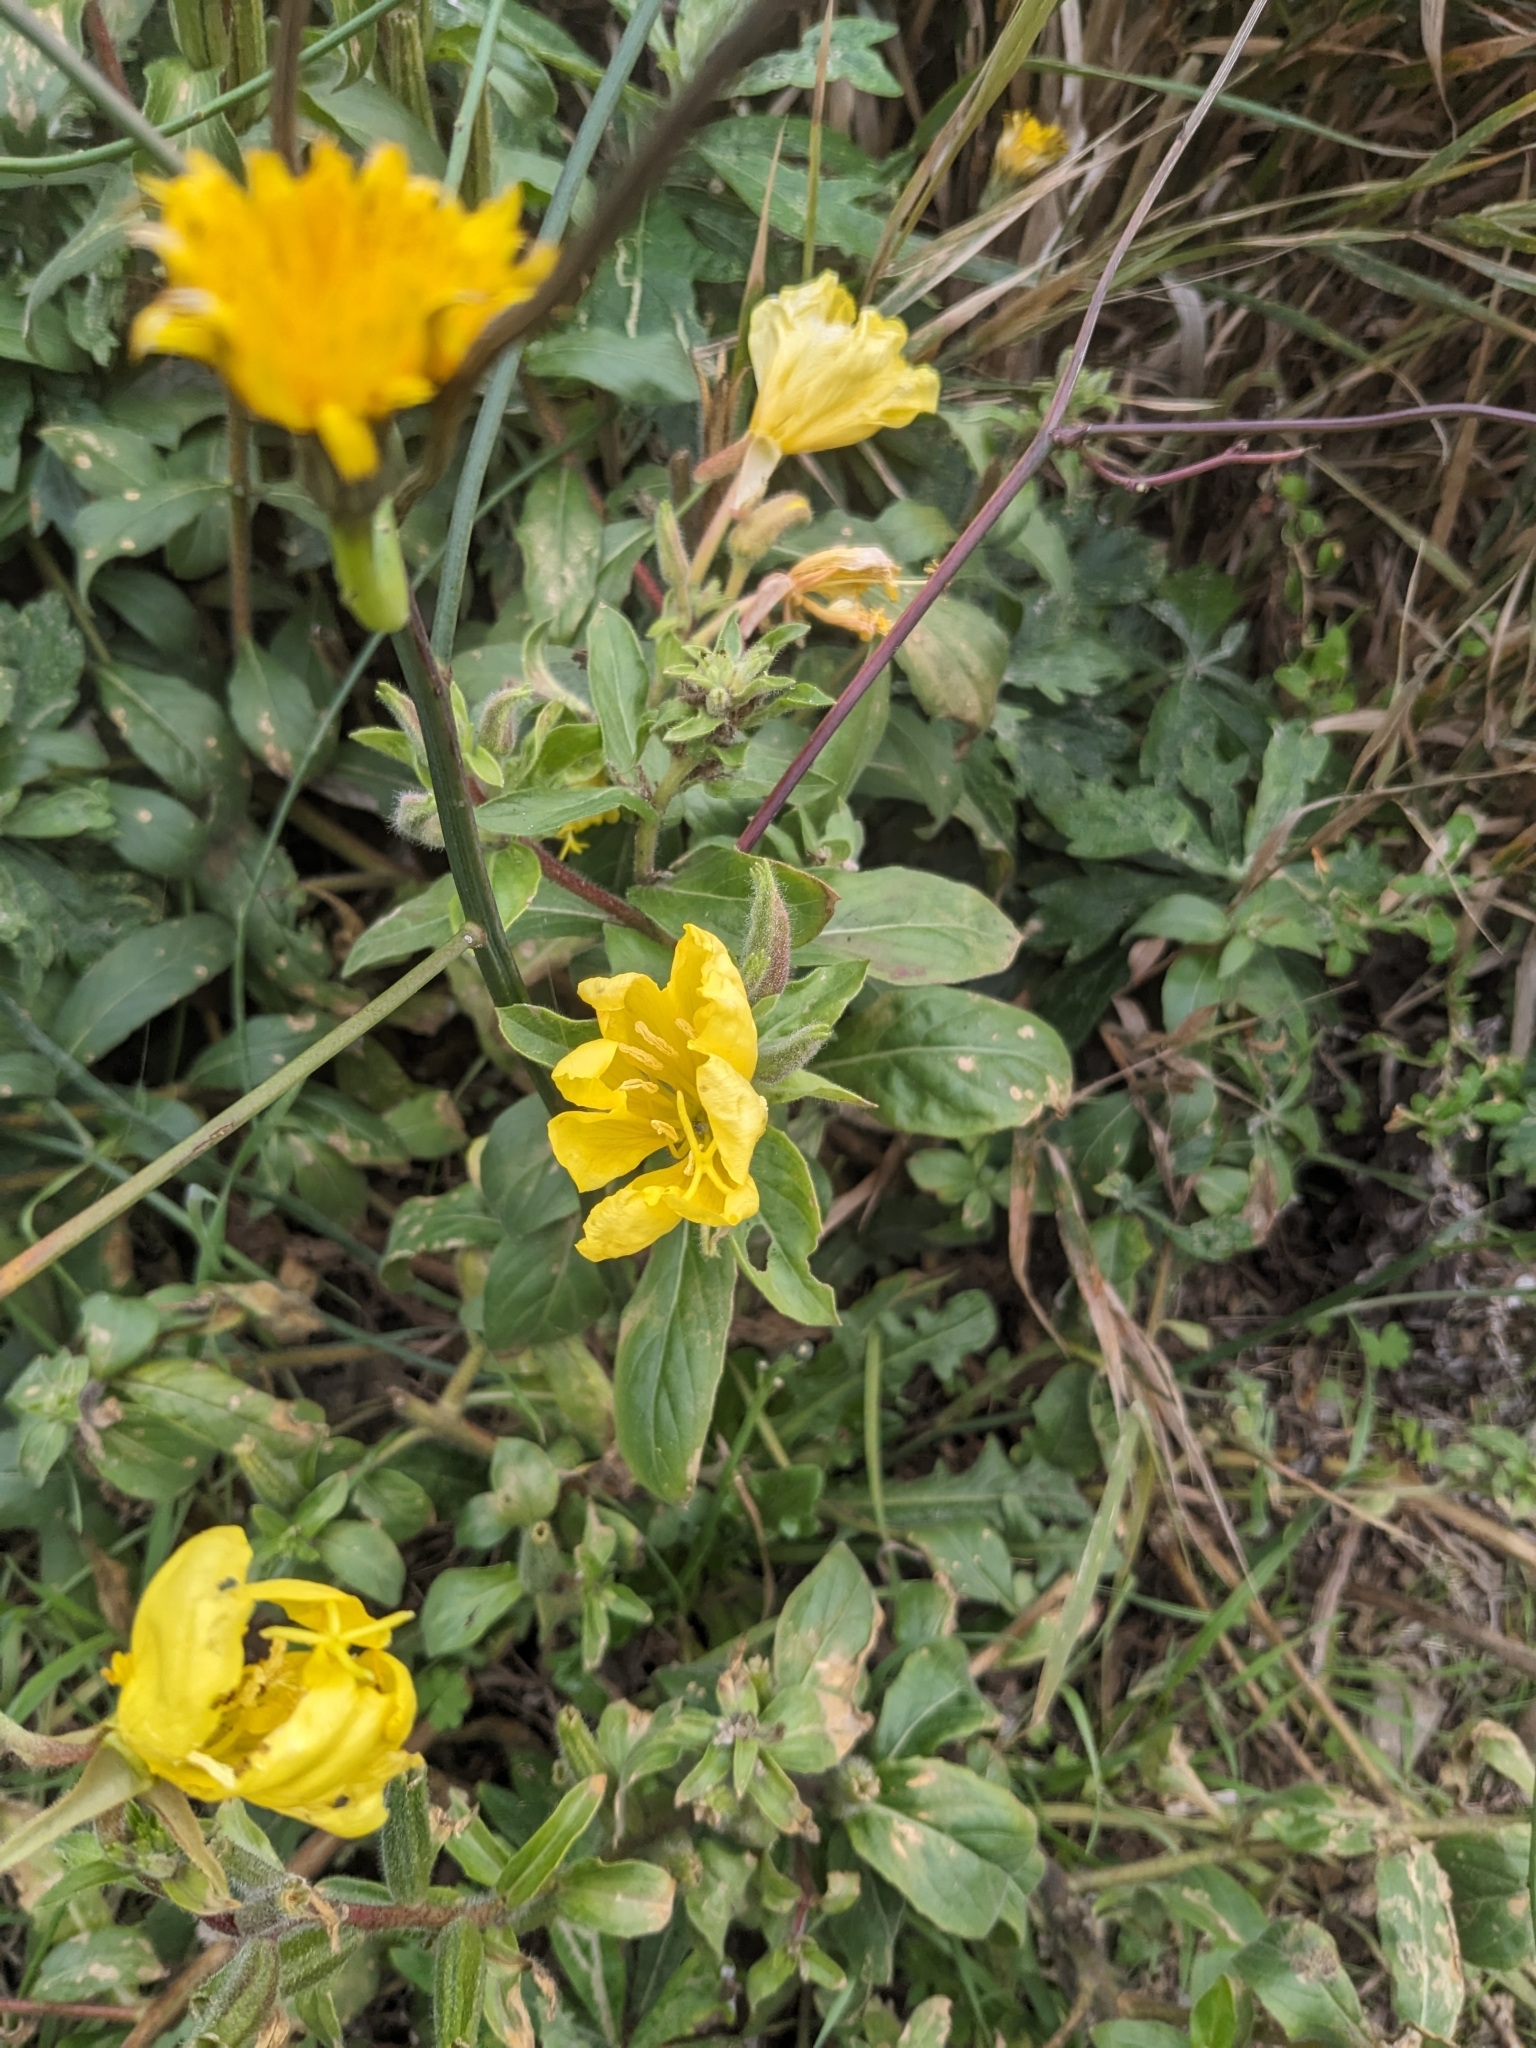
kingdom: Plantae
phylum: Tracheophyta
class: Magnoliopsida
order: Myrtales
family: Onagraceae
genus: Oenothera
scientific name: Oenothera elata
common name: Hooker's evening-primrose
